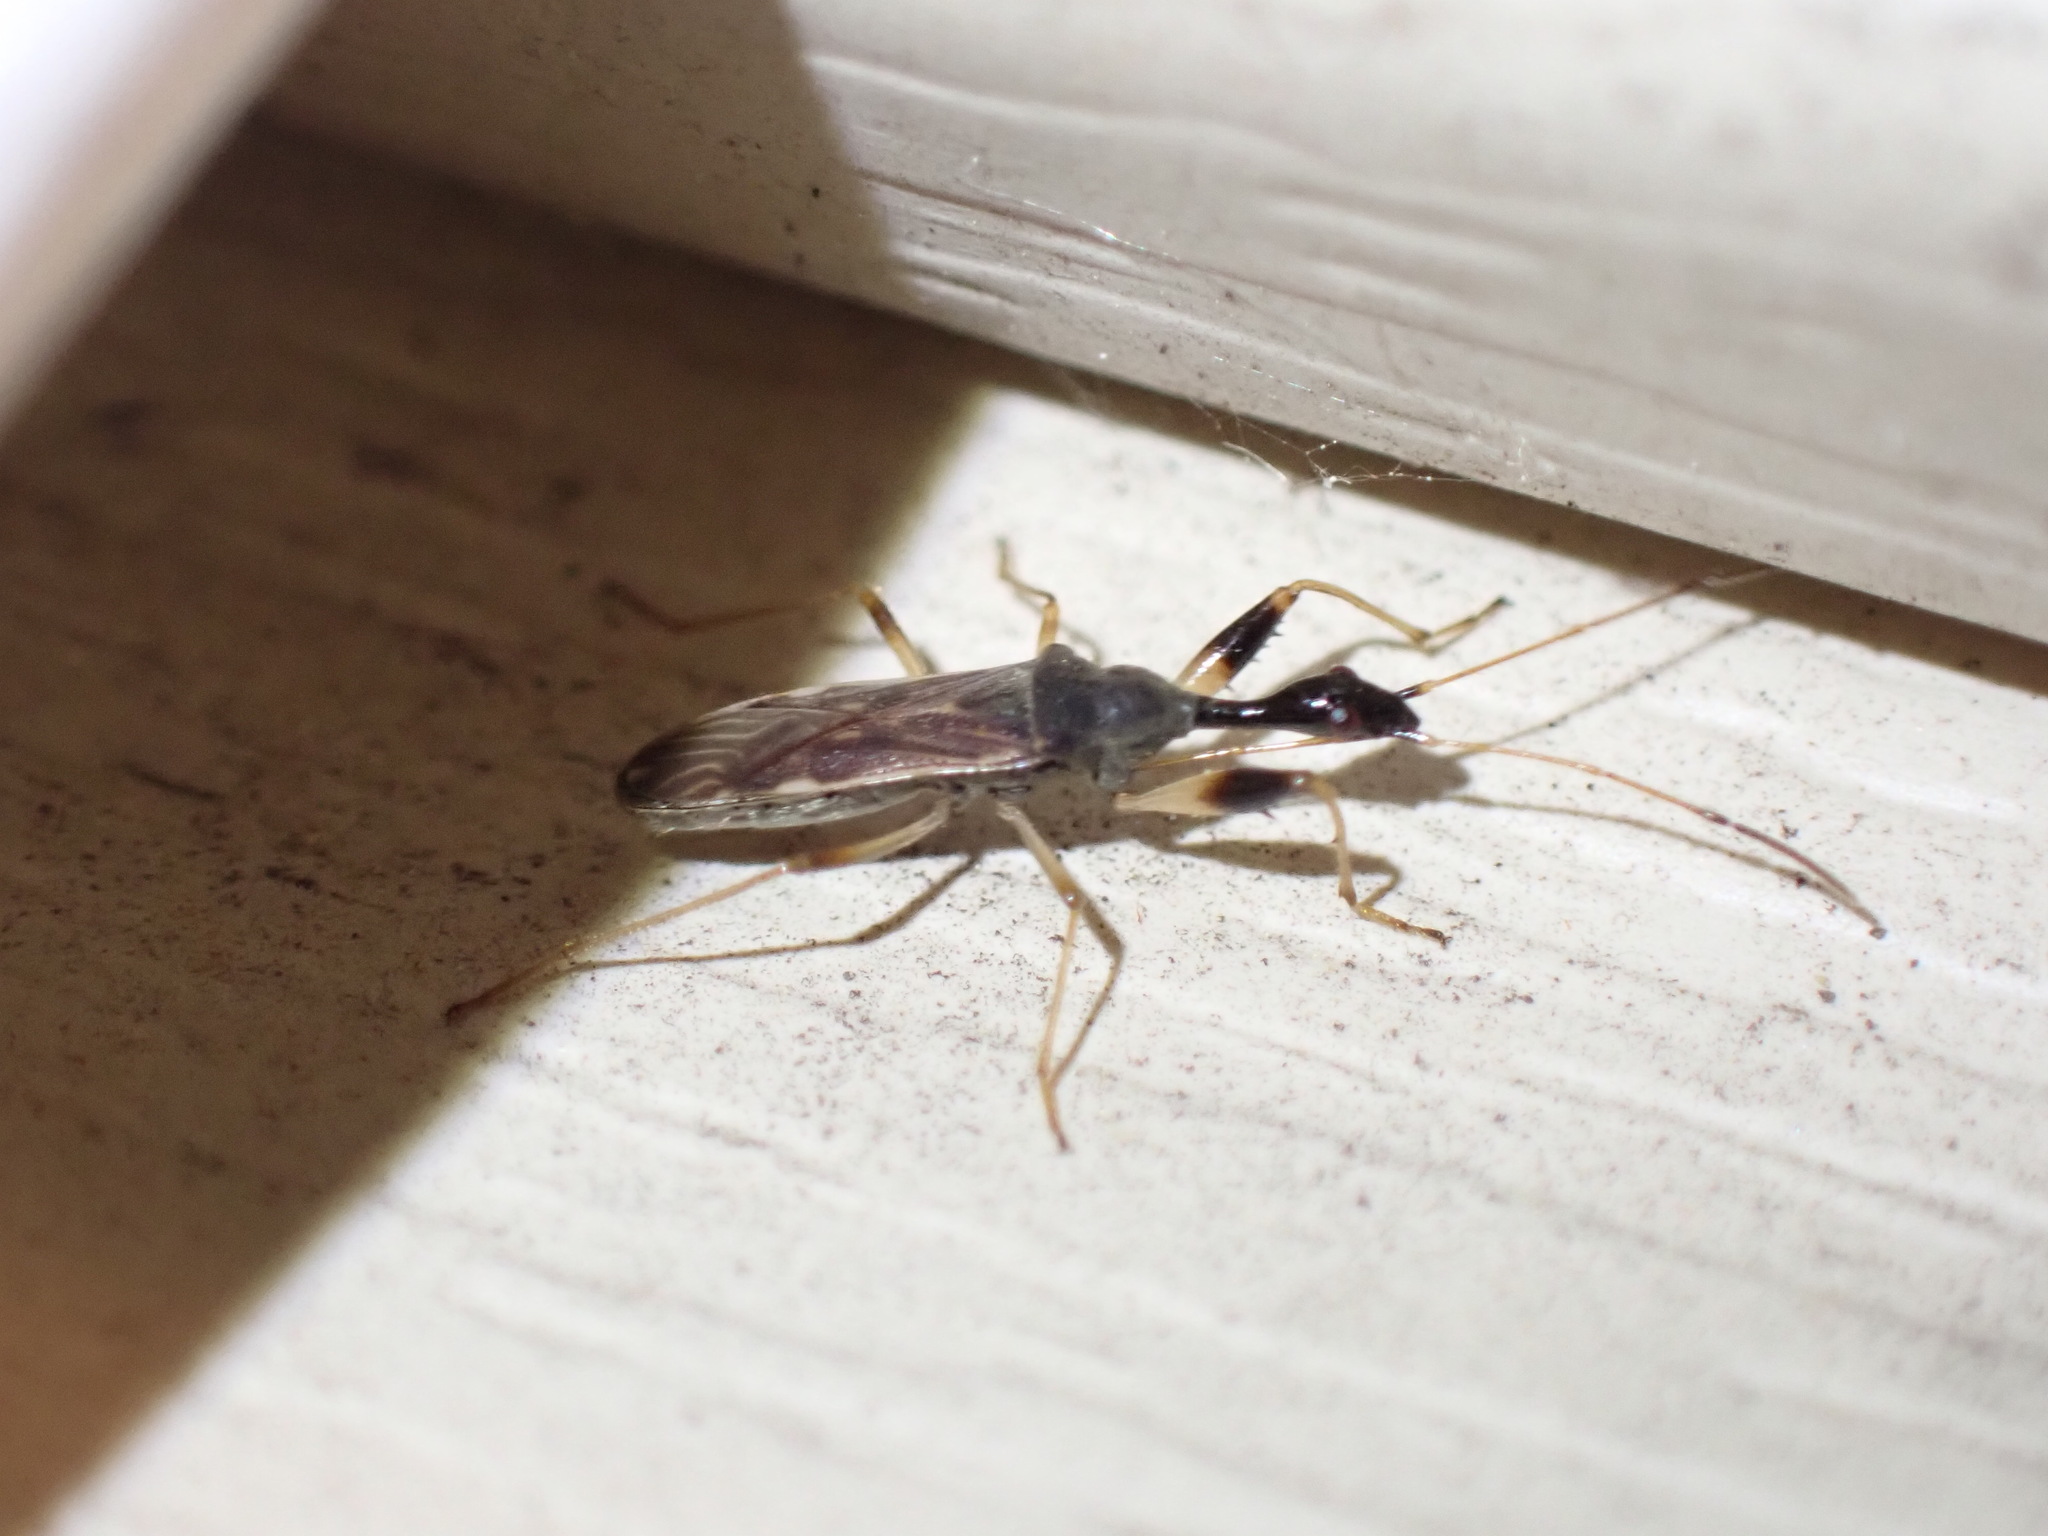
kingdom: Animalia
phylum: Arthropoda
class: Insecta
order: Hemiptera
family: Rhyparochromidae
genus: Myodocha
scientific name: Myodocha serripes
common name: Long-necked seed bug
